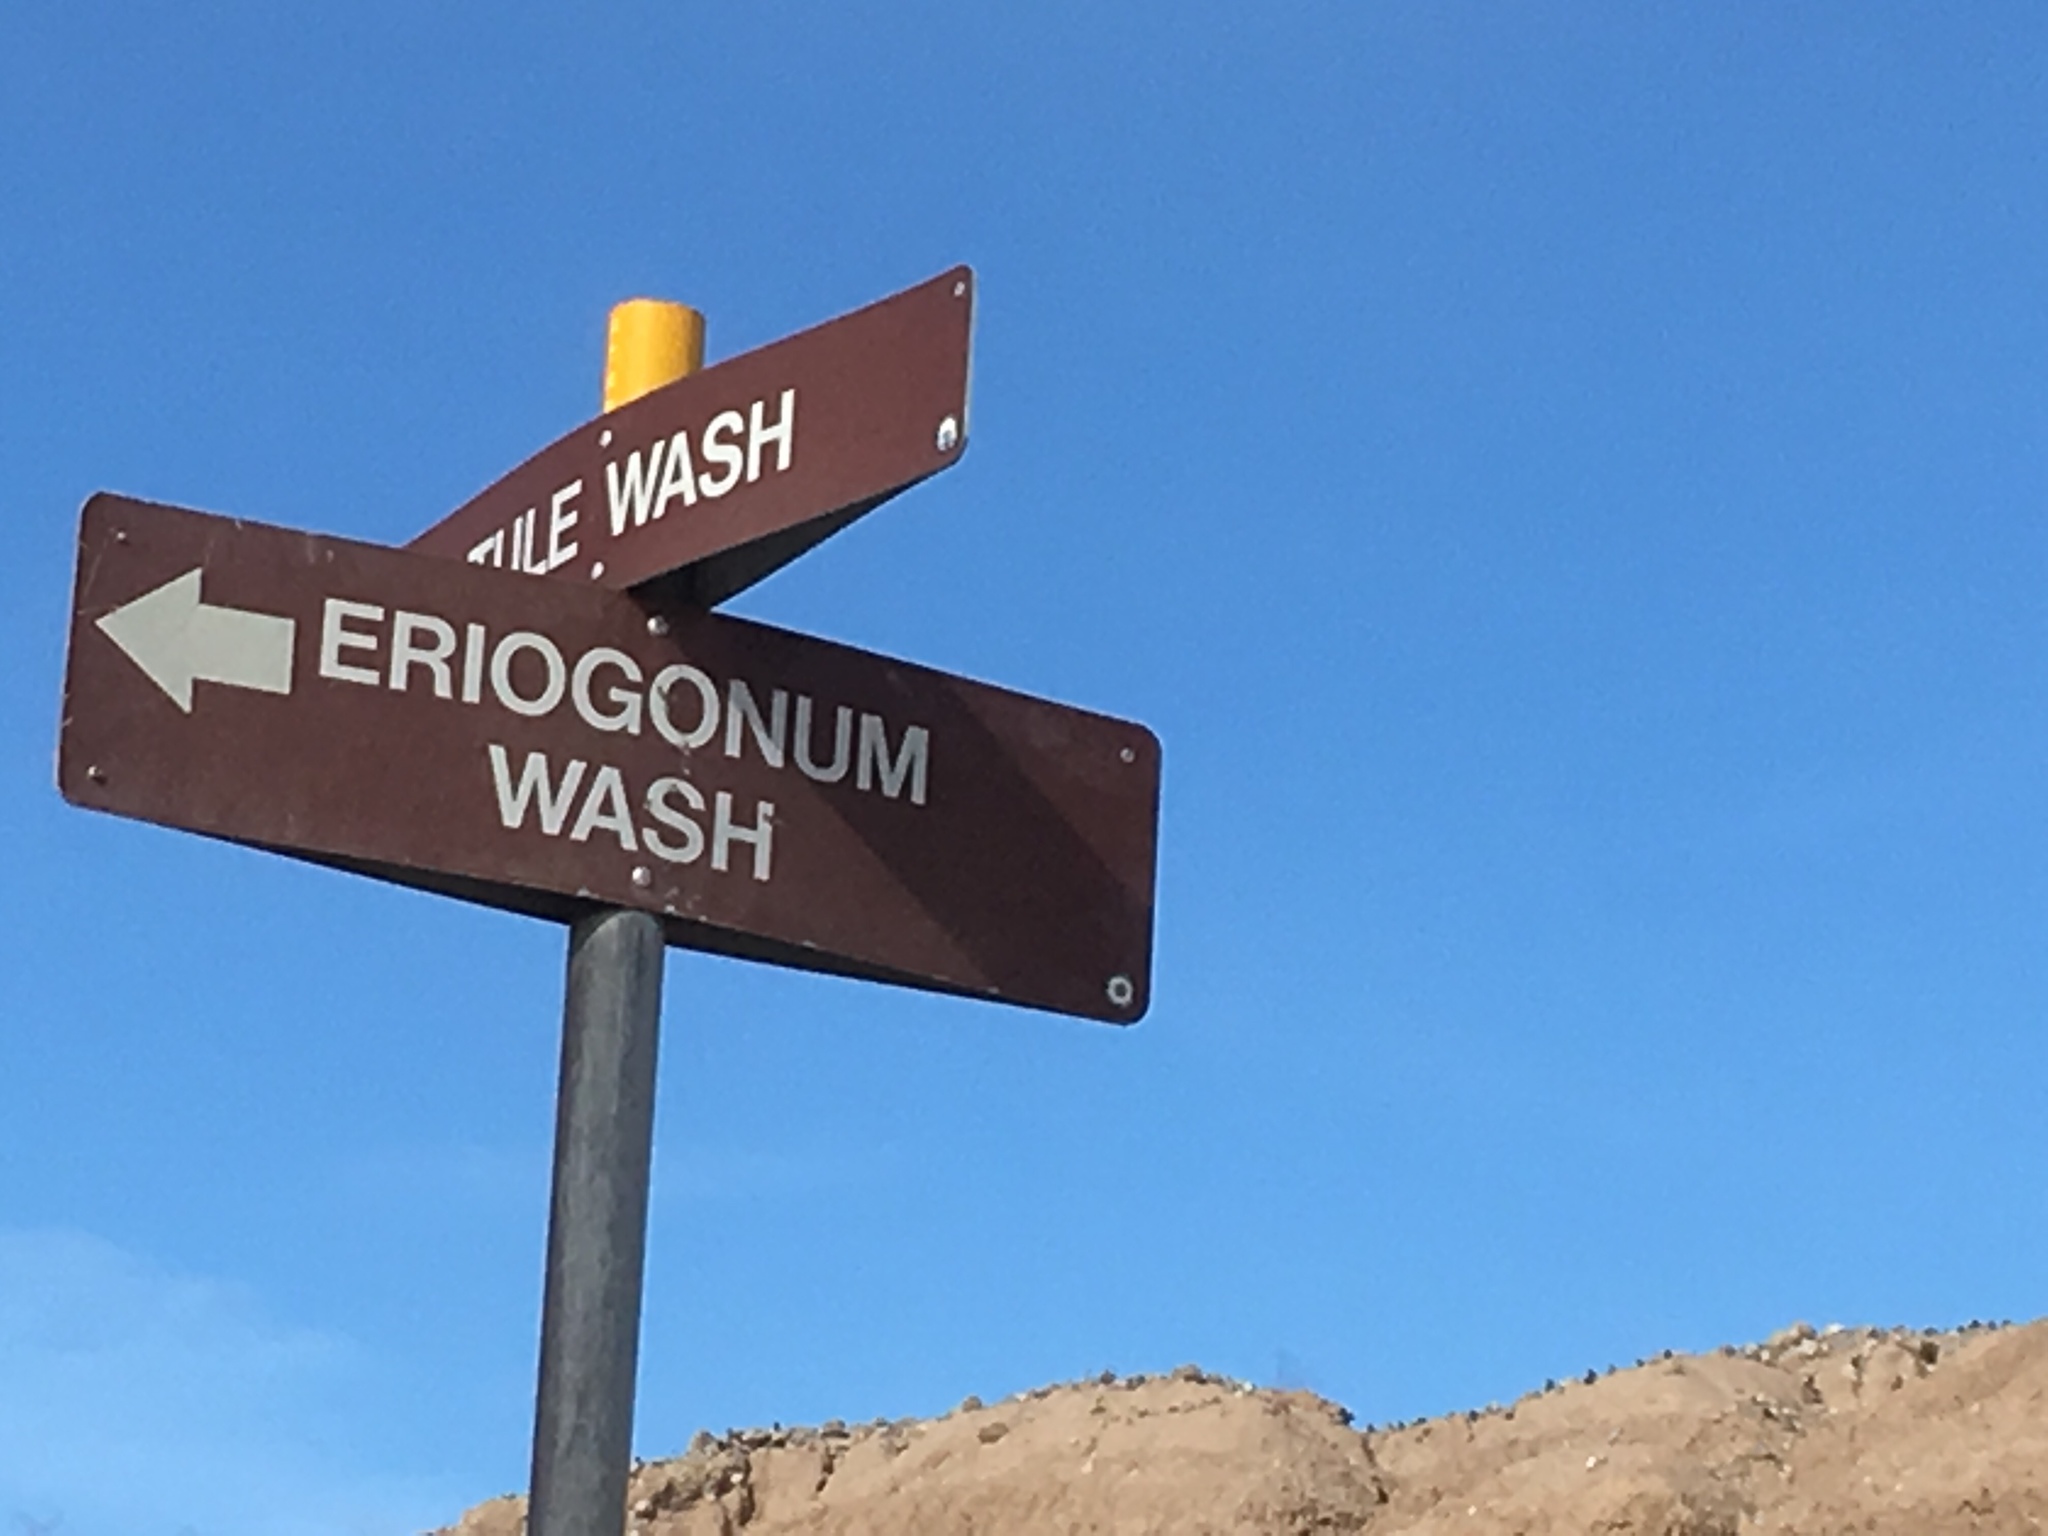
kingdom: Animalia
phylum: Chordata
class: Mammalia
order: Carnivora
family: Canidae
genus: Canis
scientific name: Canis latrans
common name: Coyote
